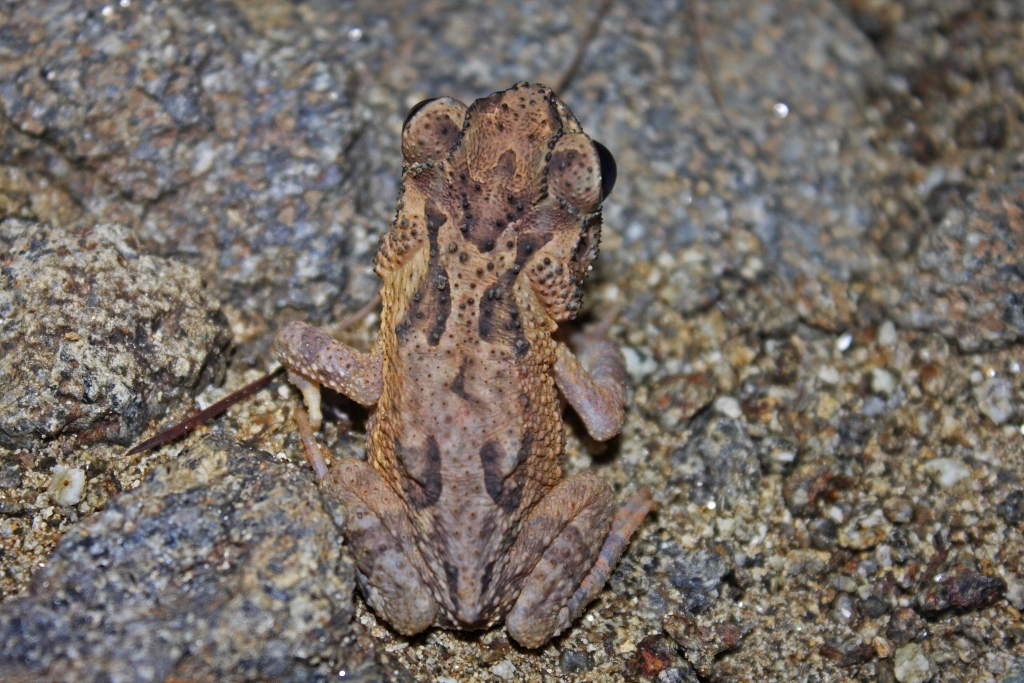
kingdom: Animalia
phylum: Chordata
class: Amphibia
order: Anura
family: Bufonidae
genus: Peltophryne
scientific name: Peltophryne taladai
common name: Cuban spotted toad
